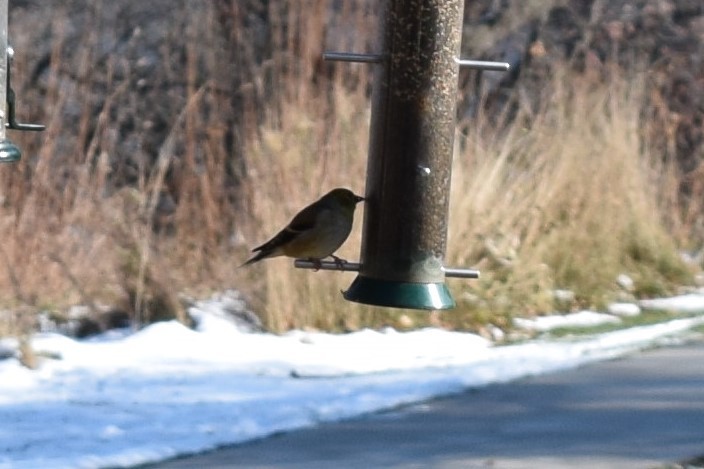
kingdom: Animalia
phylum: Chordata
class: Aves
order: Passeriformes
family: Fringillidae
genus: Spinus
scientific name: Spinus tristis
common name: American goldfinch
